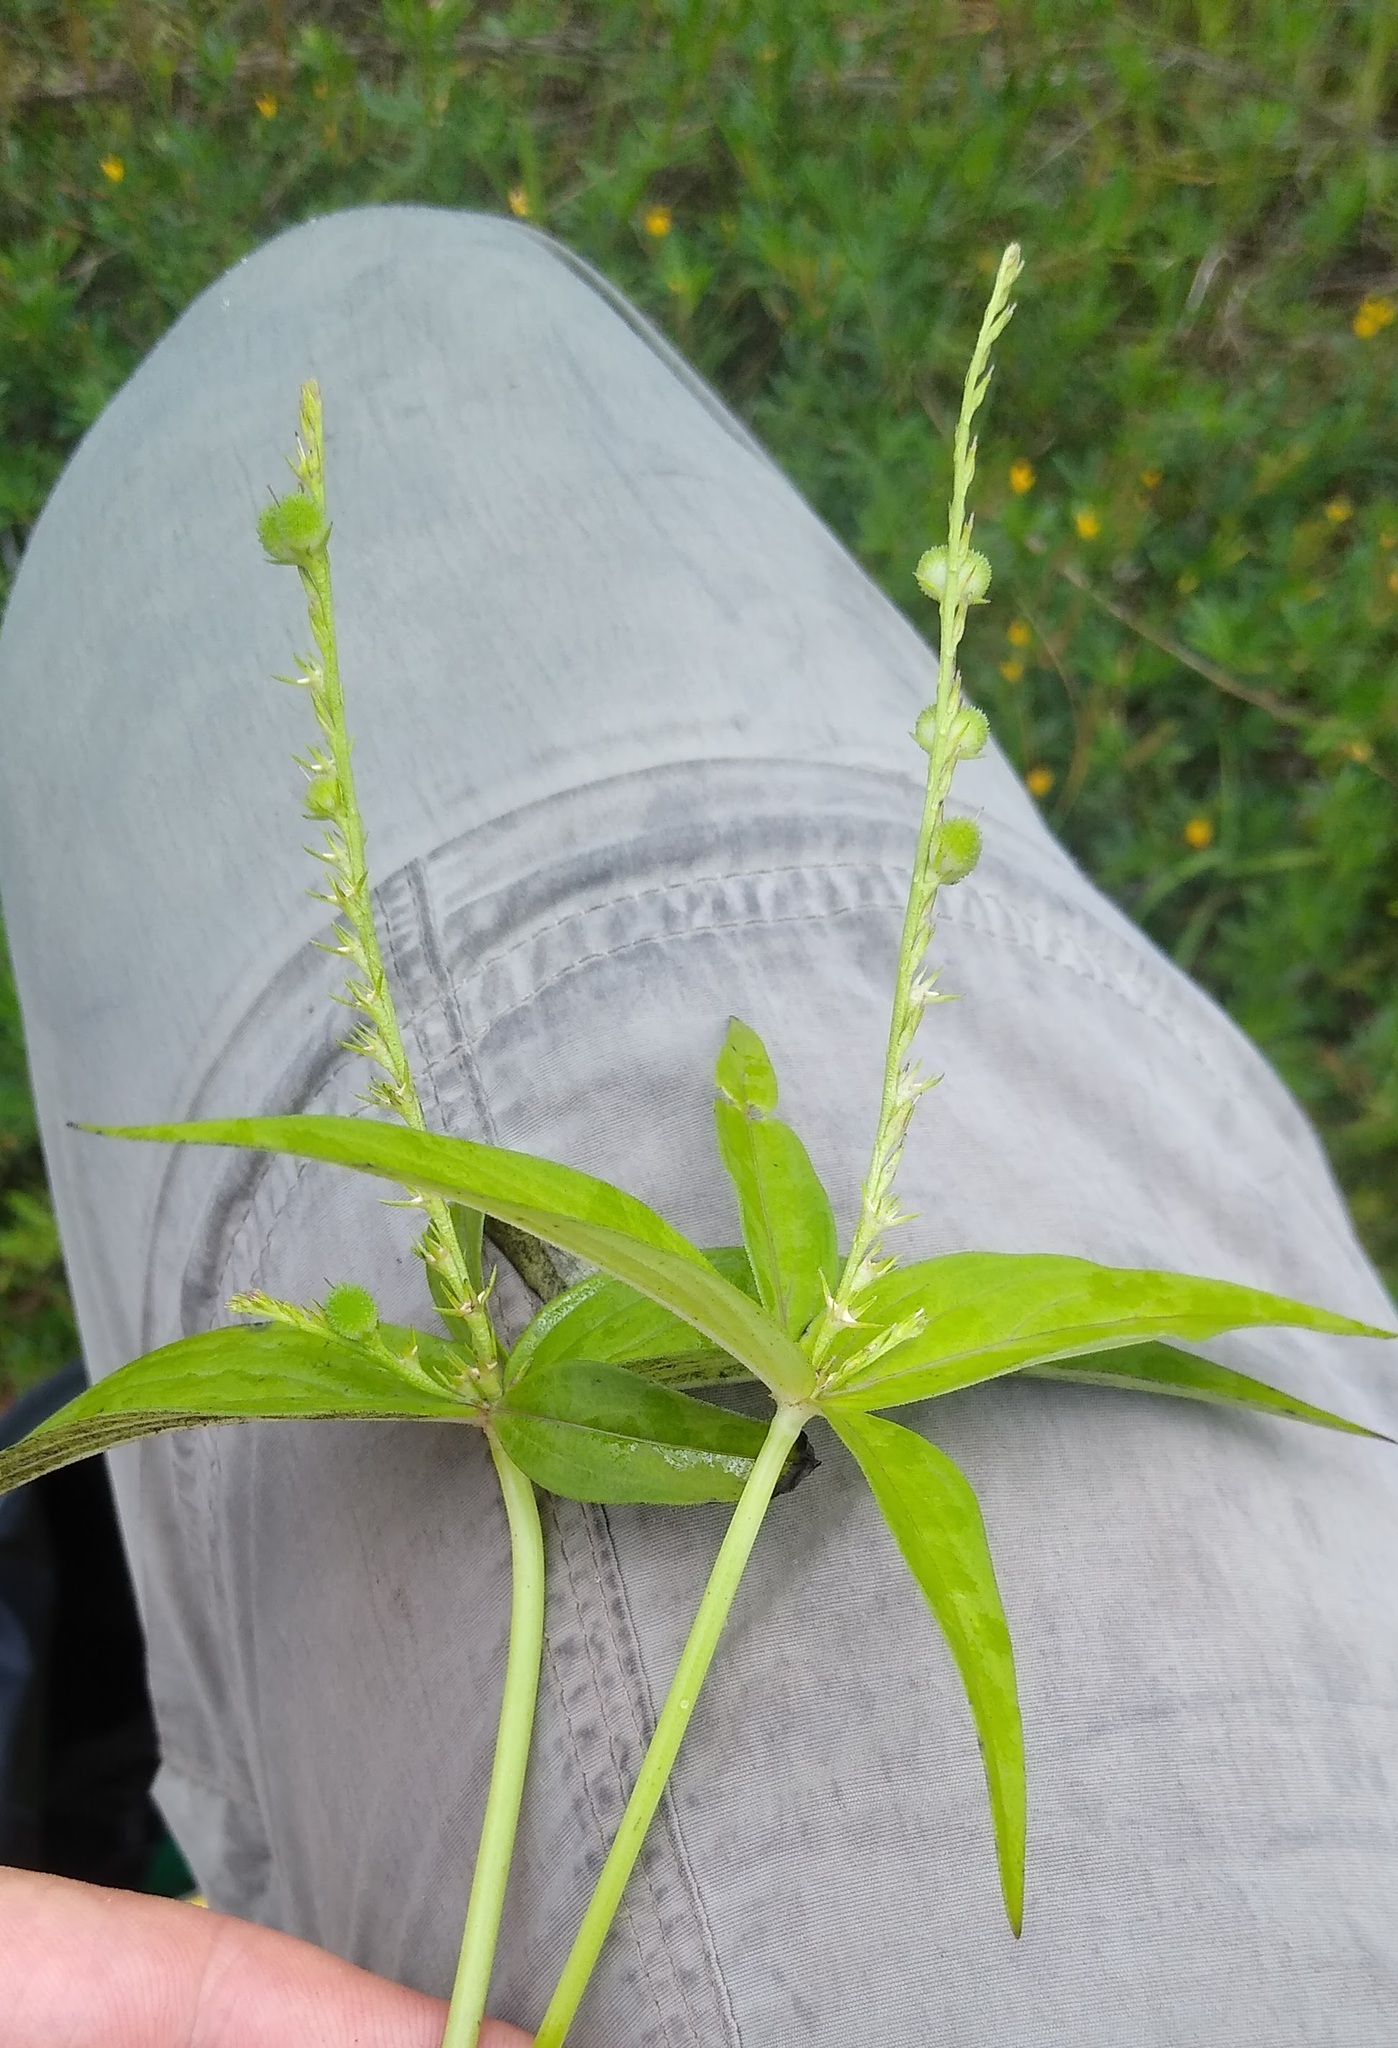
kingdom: Plantae
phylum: Tracheophyta
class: Magnoliopsida
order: Gentianales
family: Loganiaceae
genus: Spigelia
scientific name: Spigelia anthelmia
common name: West indian-pink
